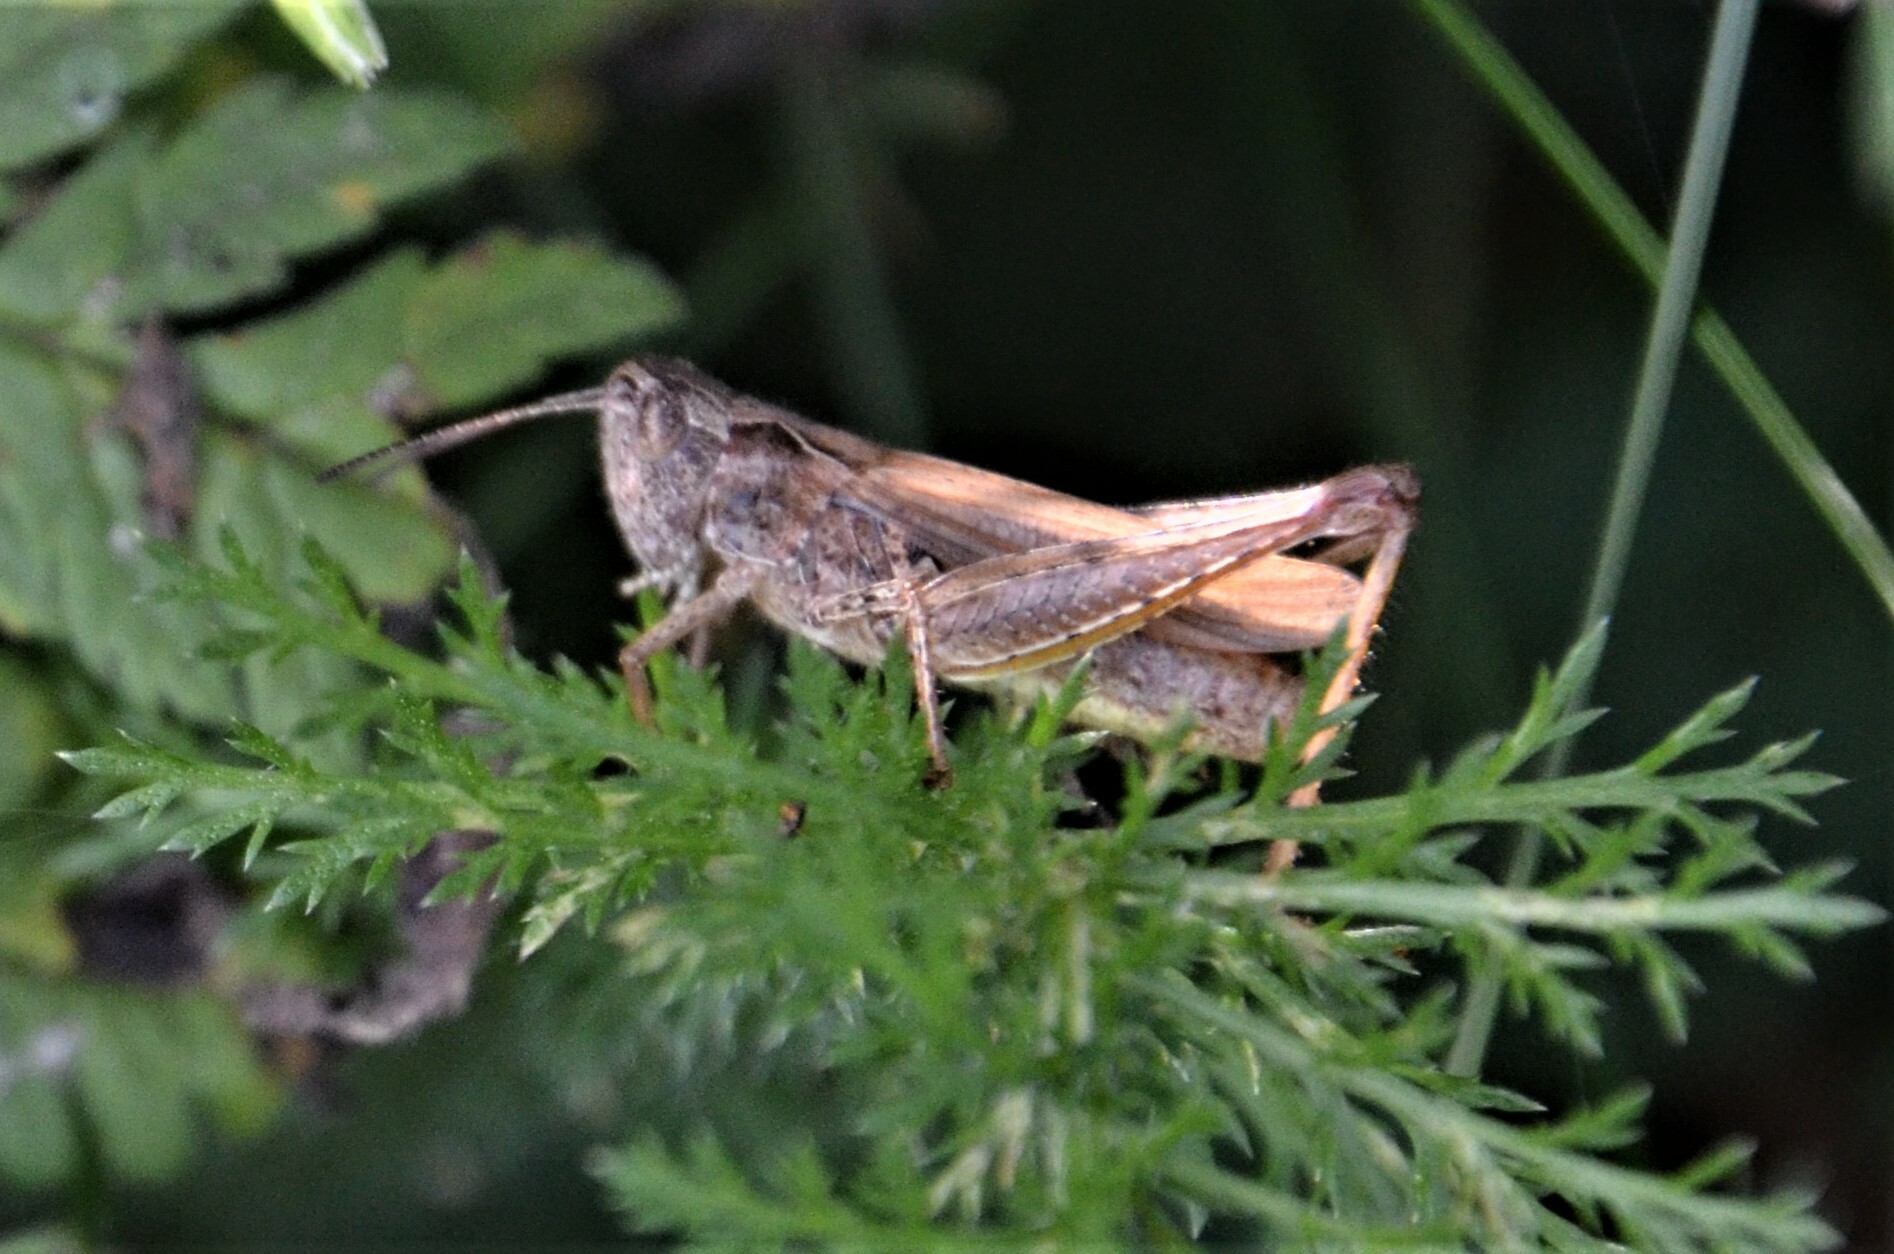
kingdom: Animalia
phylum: Arthropoda
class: Insecta
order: Orthoptera
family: Acrididae
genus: Chorthippus
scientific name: Chorthippus apricarius
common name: Upland field grasshopper
